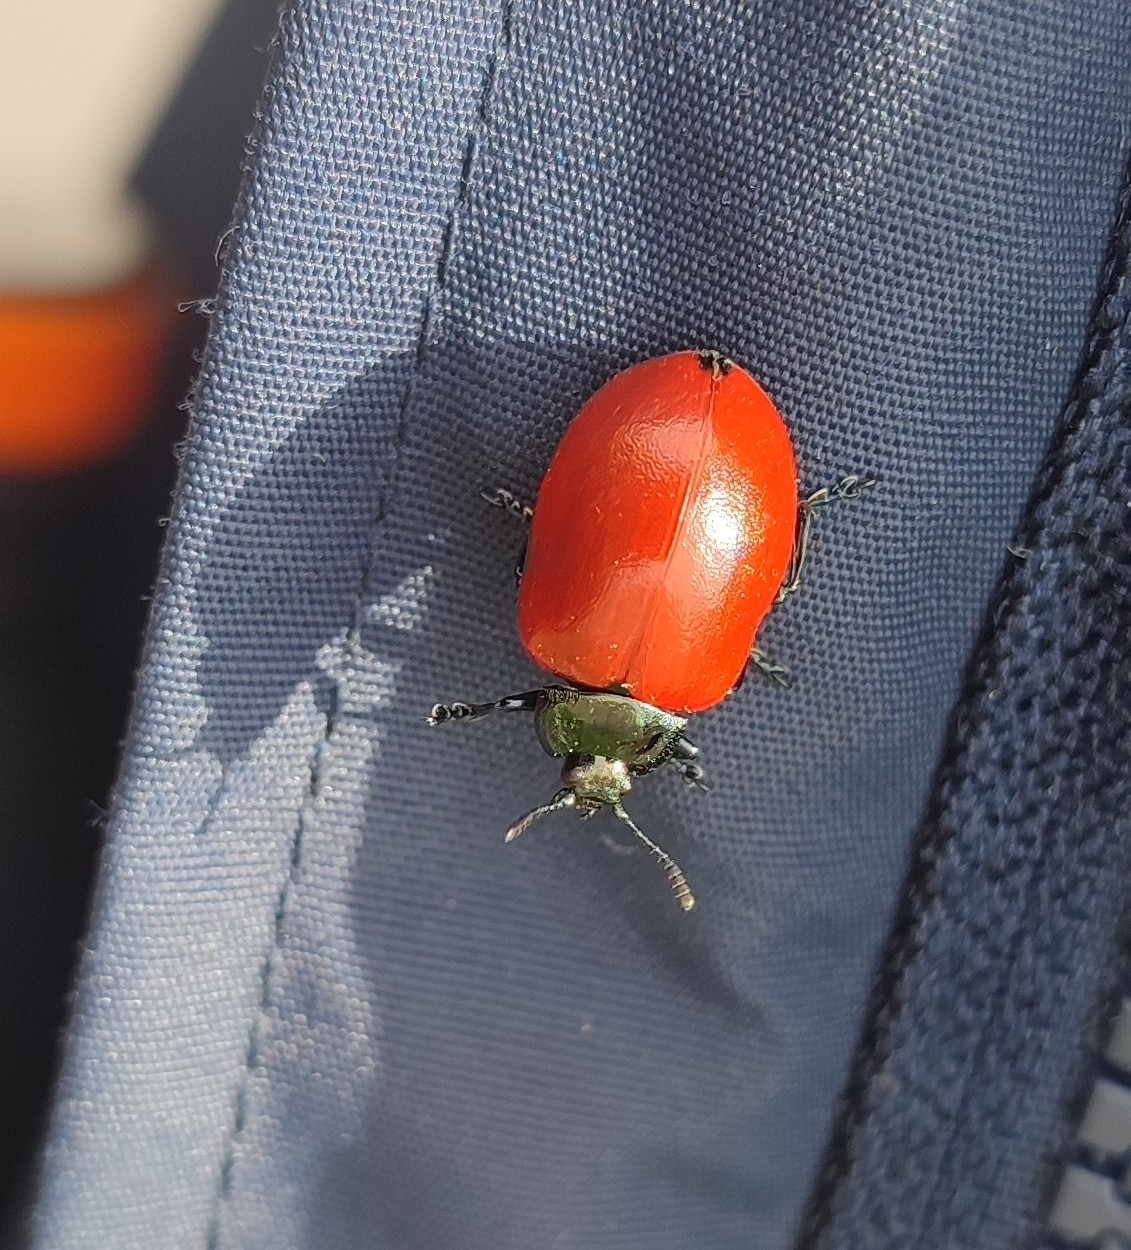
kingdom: Animalia
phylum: Arthropoda
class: Insecta
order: Coleoptera
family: Chrysomelidae
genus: Chrysomela
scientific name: Chrysomela populi
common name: Red poplar leaf beetle
